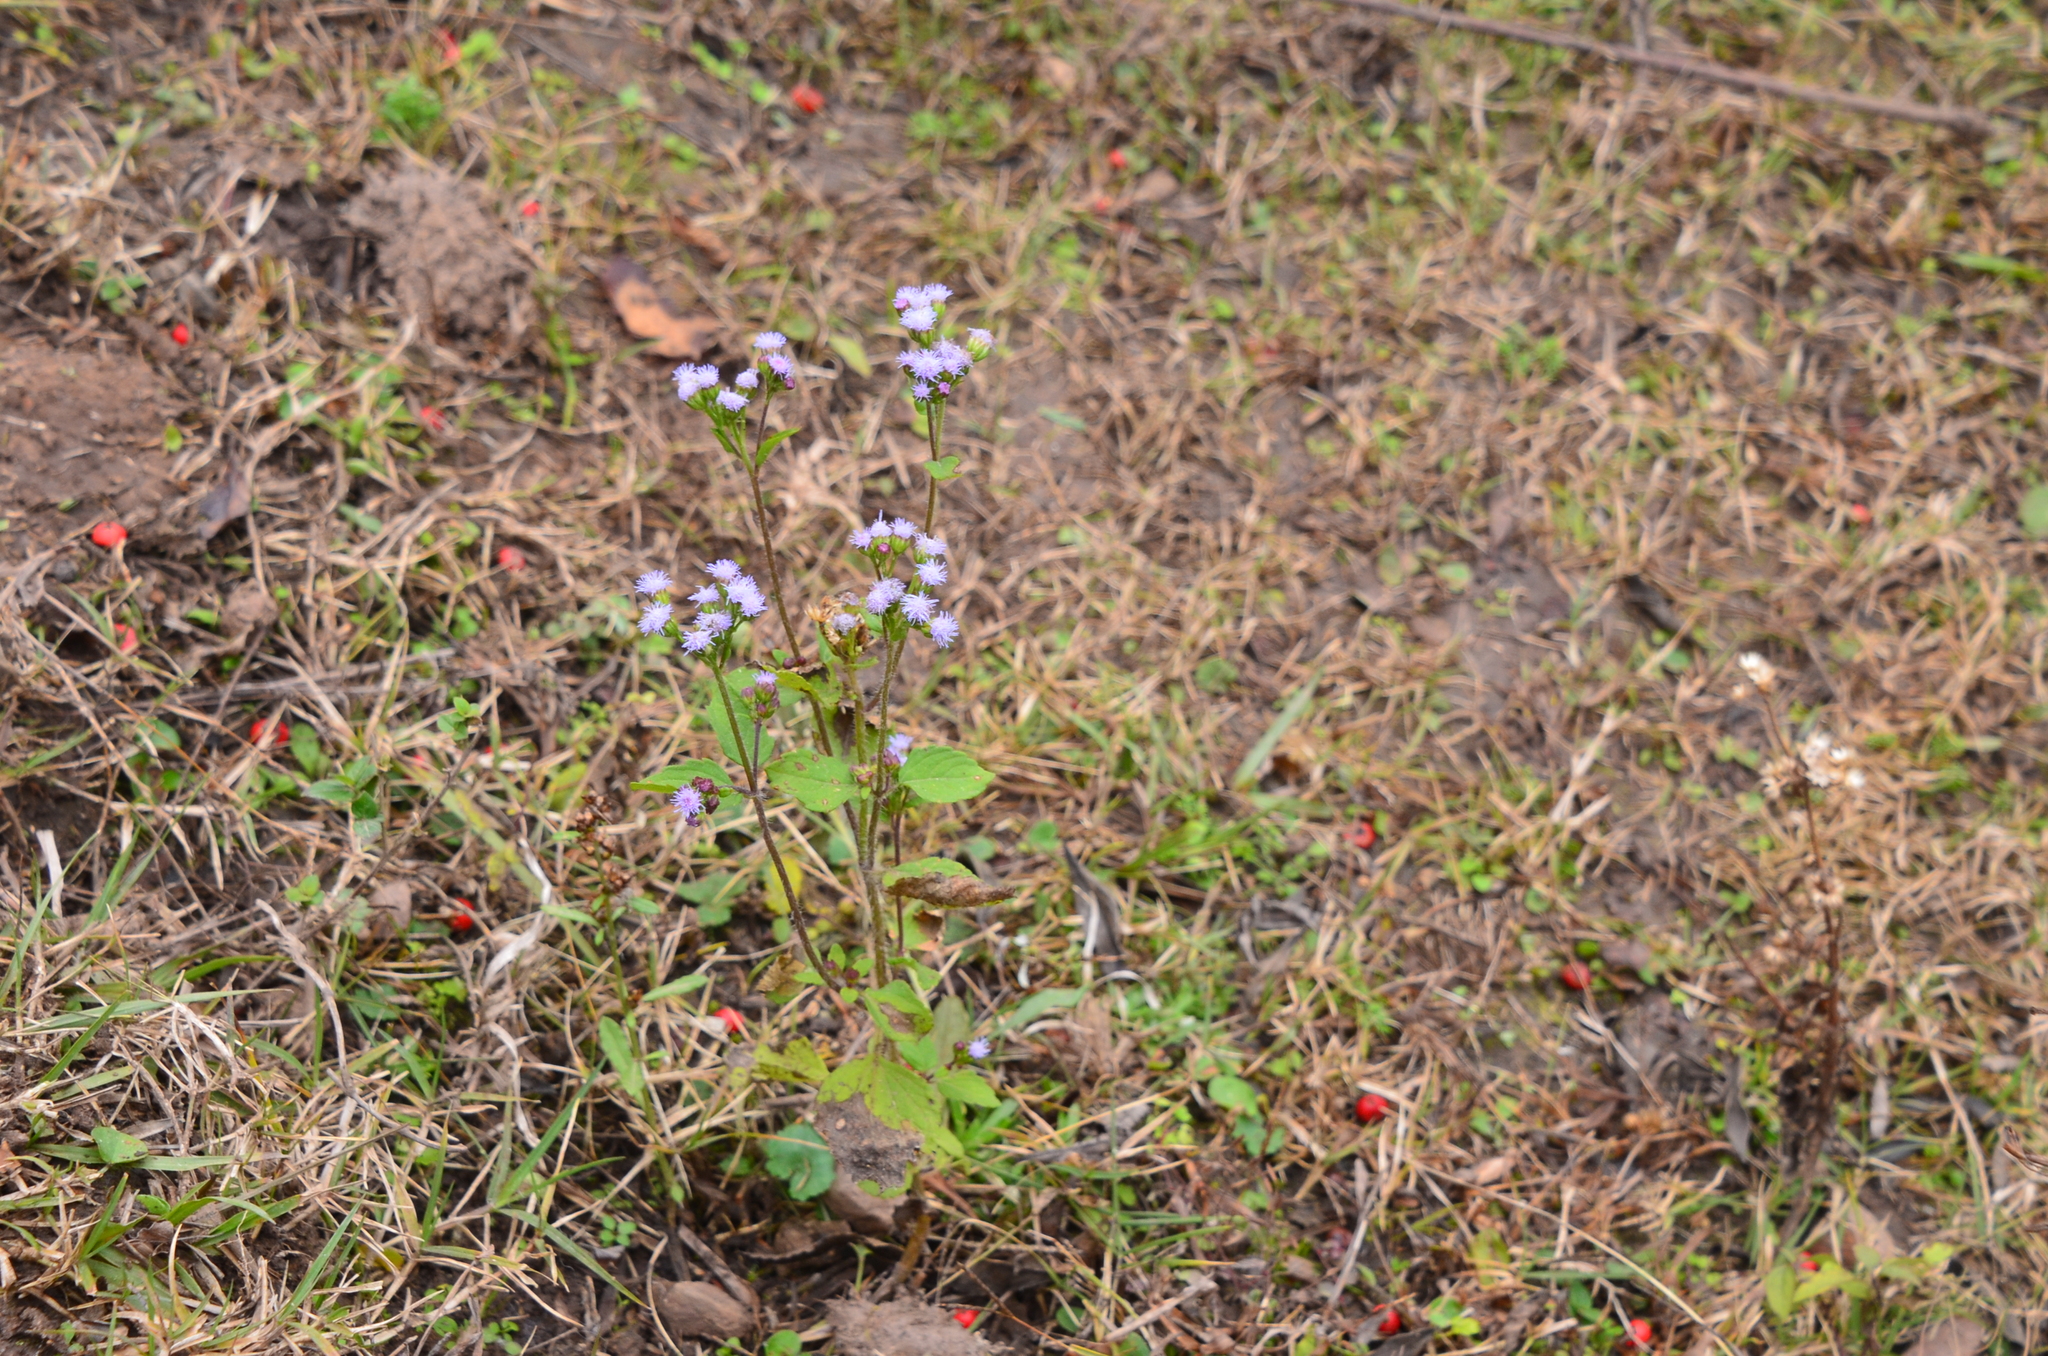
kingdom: Plantae
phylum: Tracheophyta
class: Magnoliopsida
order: Asterales
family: Asteraceae
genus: Ageratum
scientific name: Ageratum conyzoides
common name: Tropical whiteweed
